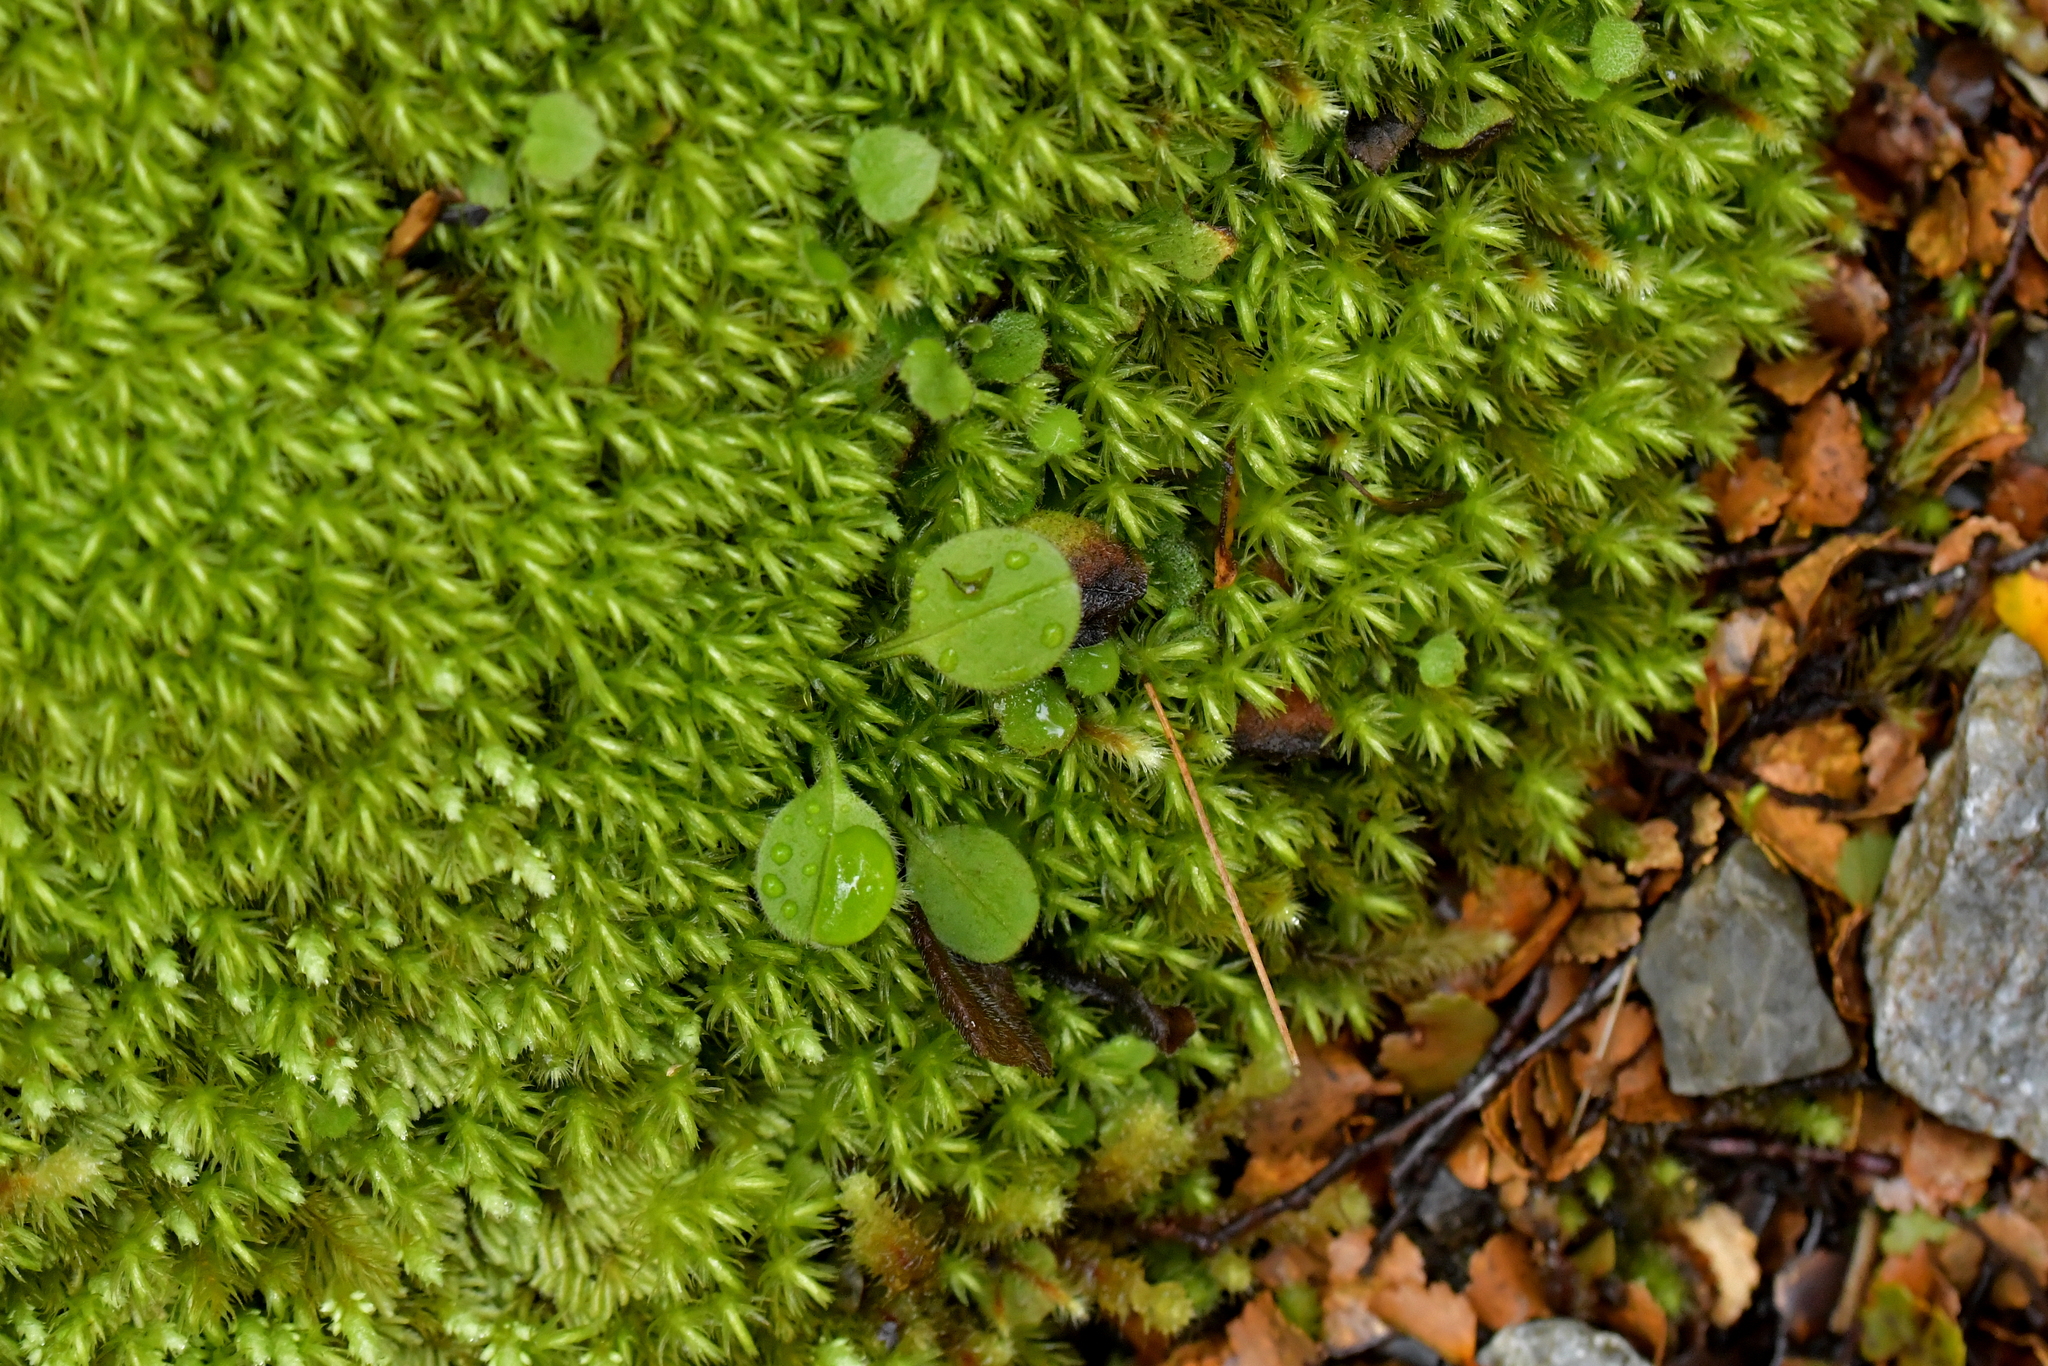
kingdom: Plantae
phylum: Tracheophyta
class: Magnoliopsida
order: Boraginales
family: Boraginaceae
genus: Myosotis
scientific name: Myosotis forsteri
